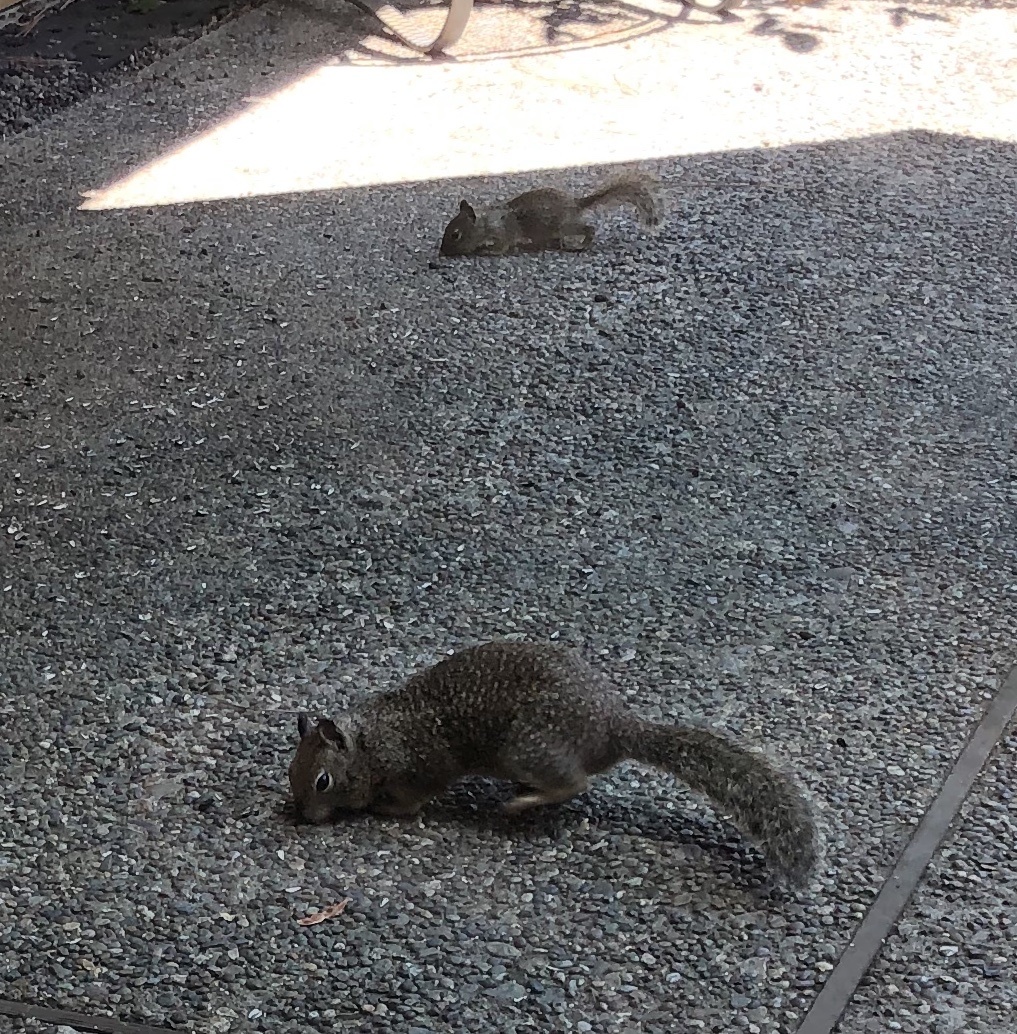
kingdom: Animalia
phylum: Chordata
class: Mammalia
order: Rodentia
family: Sciuridae
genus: Otospermophilus
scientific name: Otospermophilus beecheyi
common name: California ground squirrel
